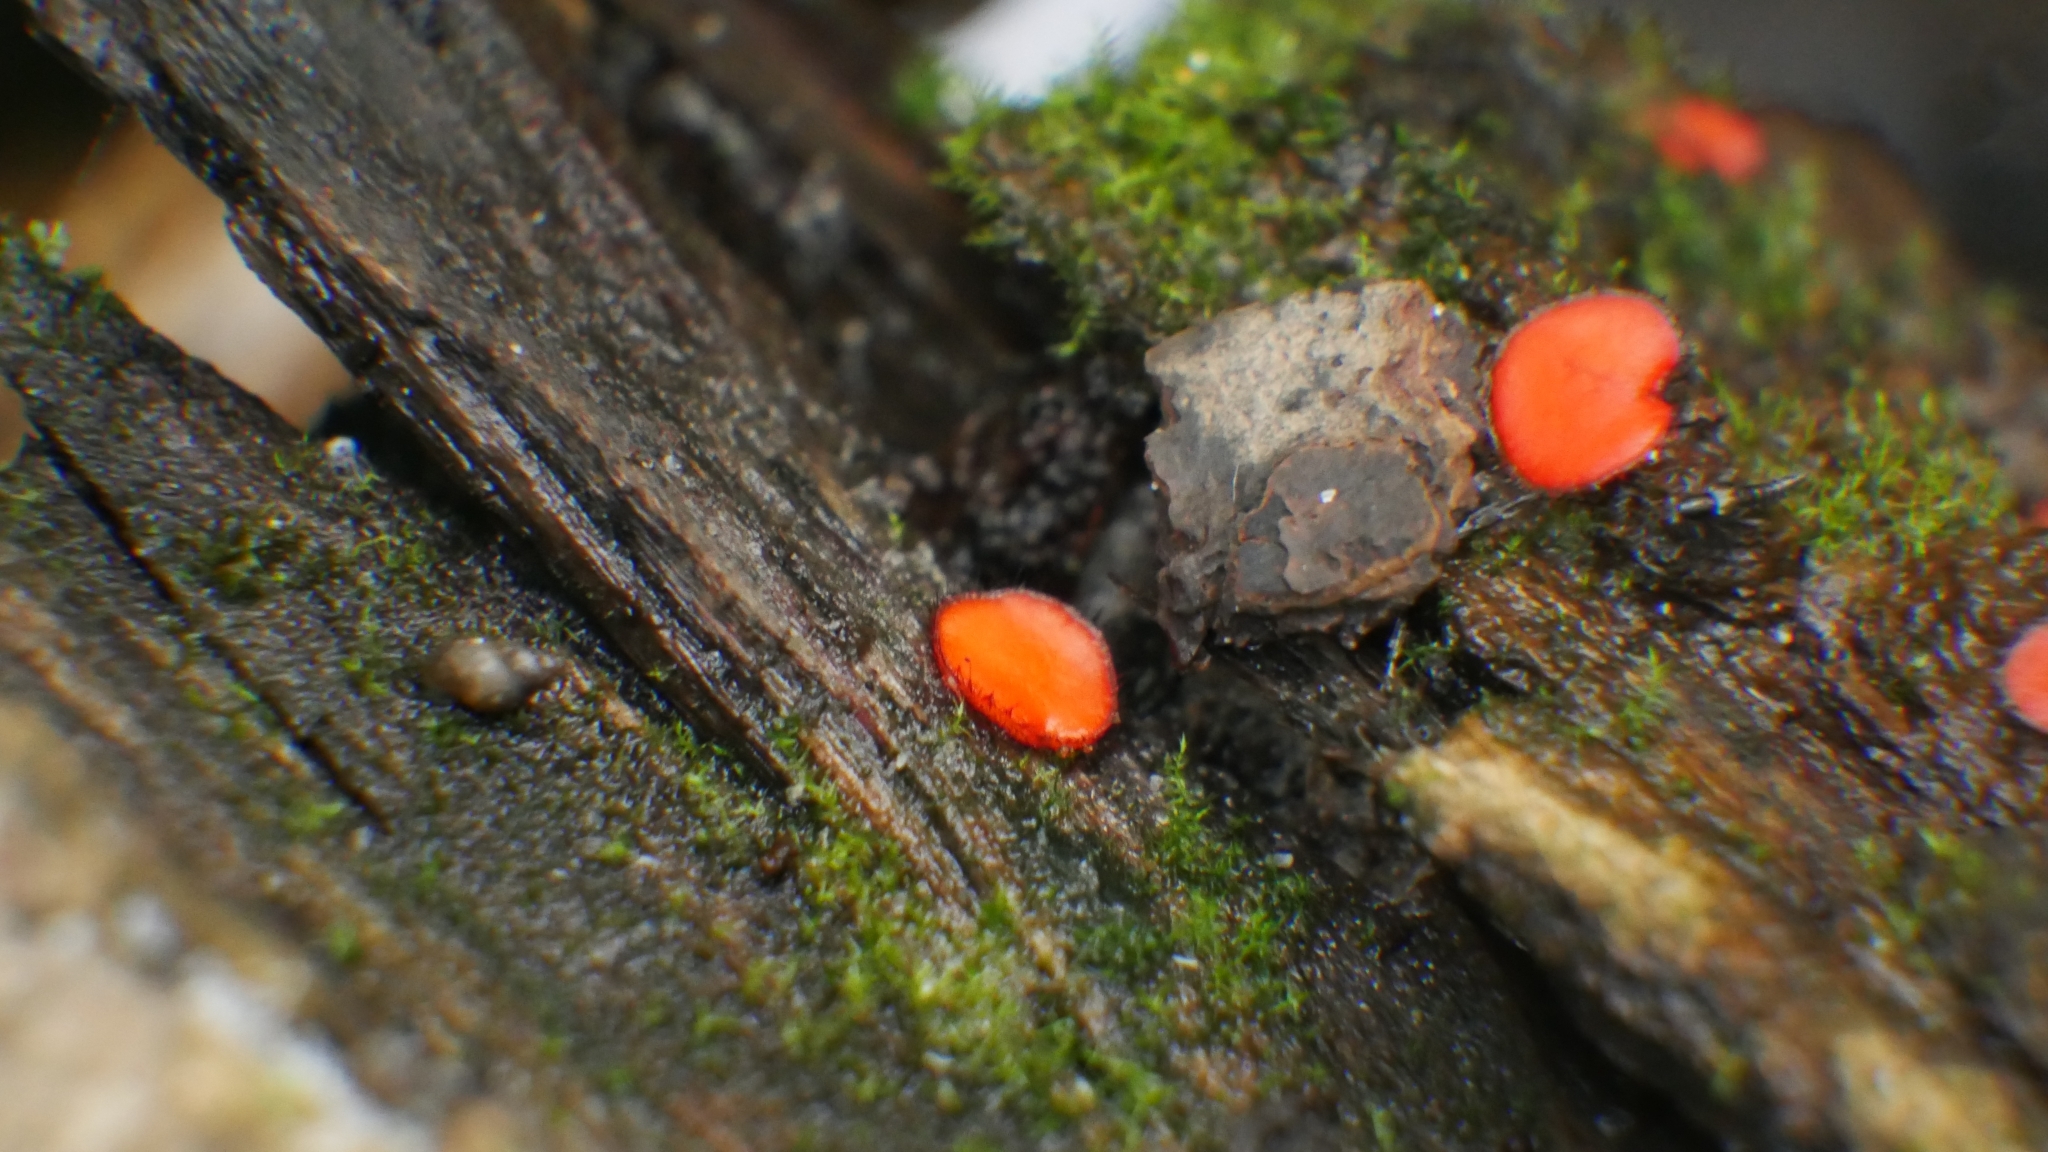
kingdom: Fungi
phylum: Ascomycota
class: Pezizomycetes
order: Pezizales
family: Pyronemataceae
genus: Scutellinia
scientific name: Scutellinia
